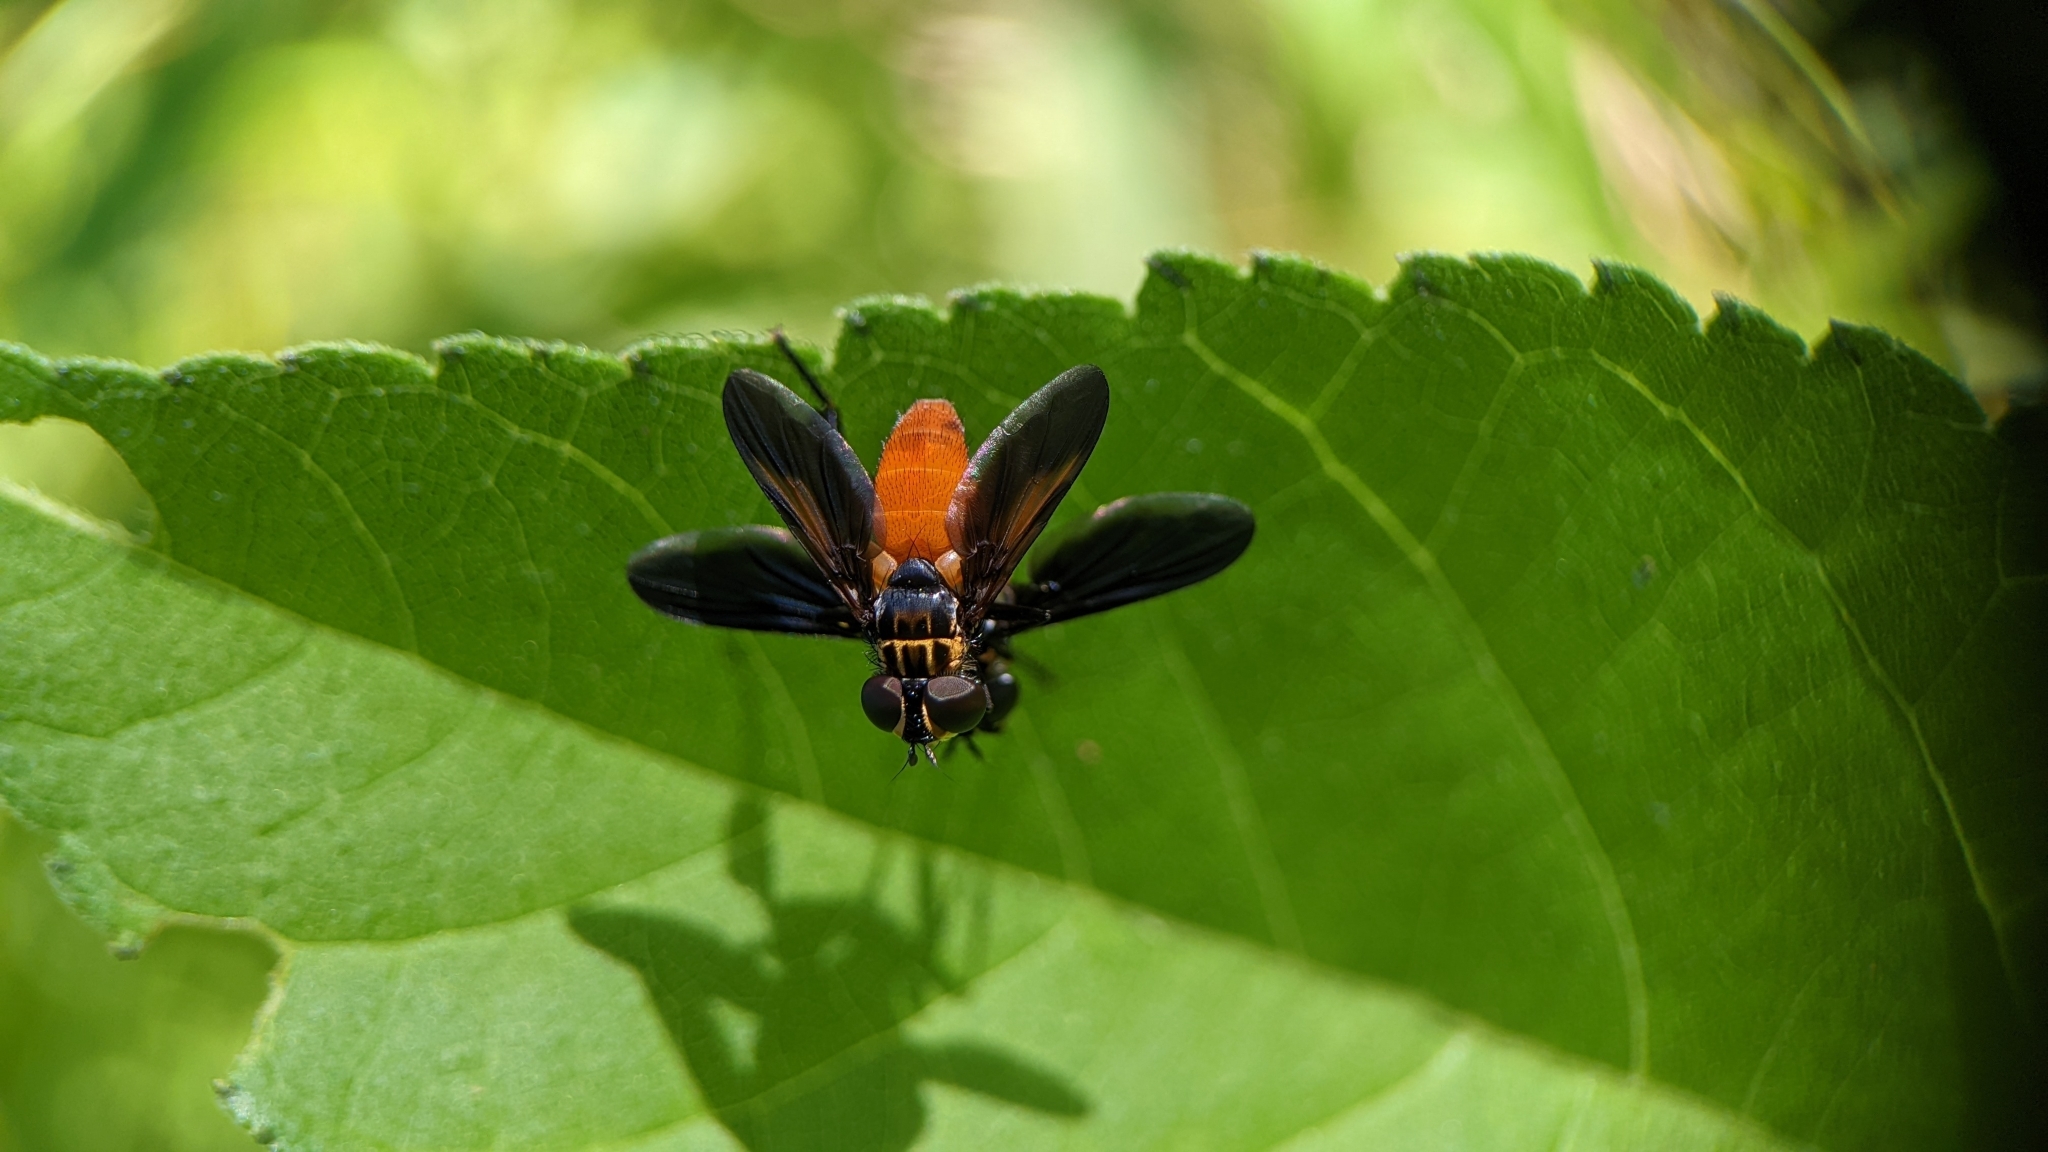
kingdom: Animalia
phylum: Arthropoda
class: Insecta
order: Diptera
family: Tachinidae
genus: Trichopoda
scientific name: Trichopoda pennipes
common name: Tachinid fly
